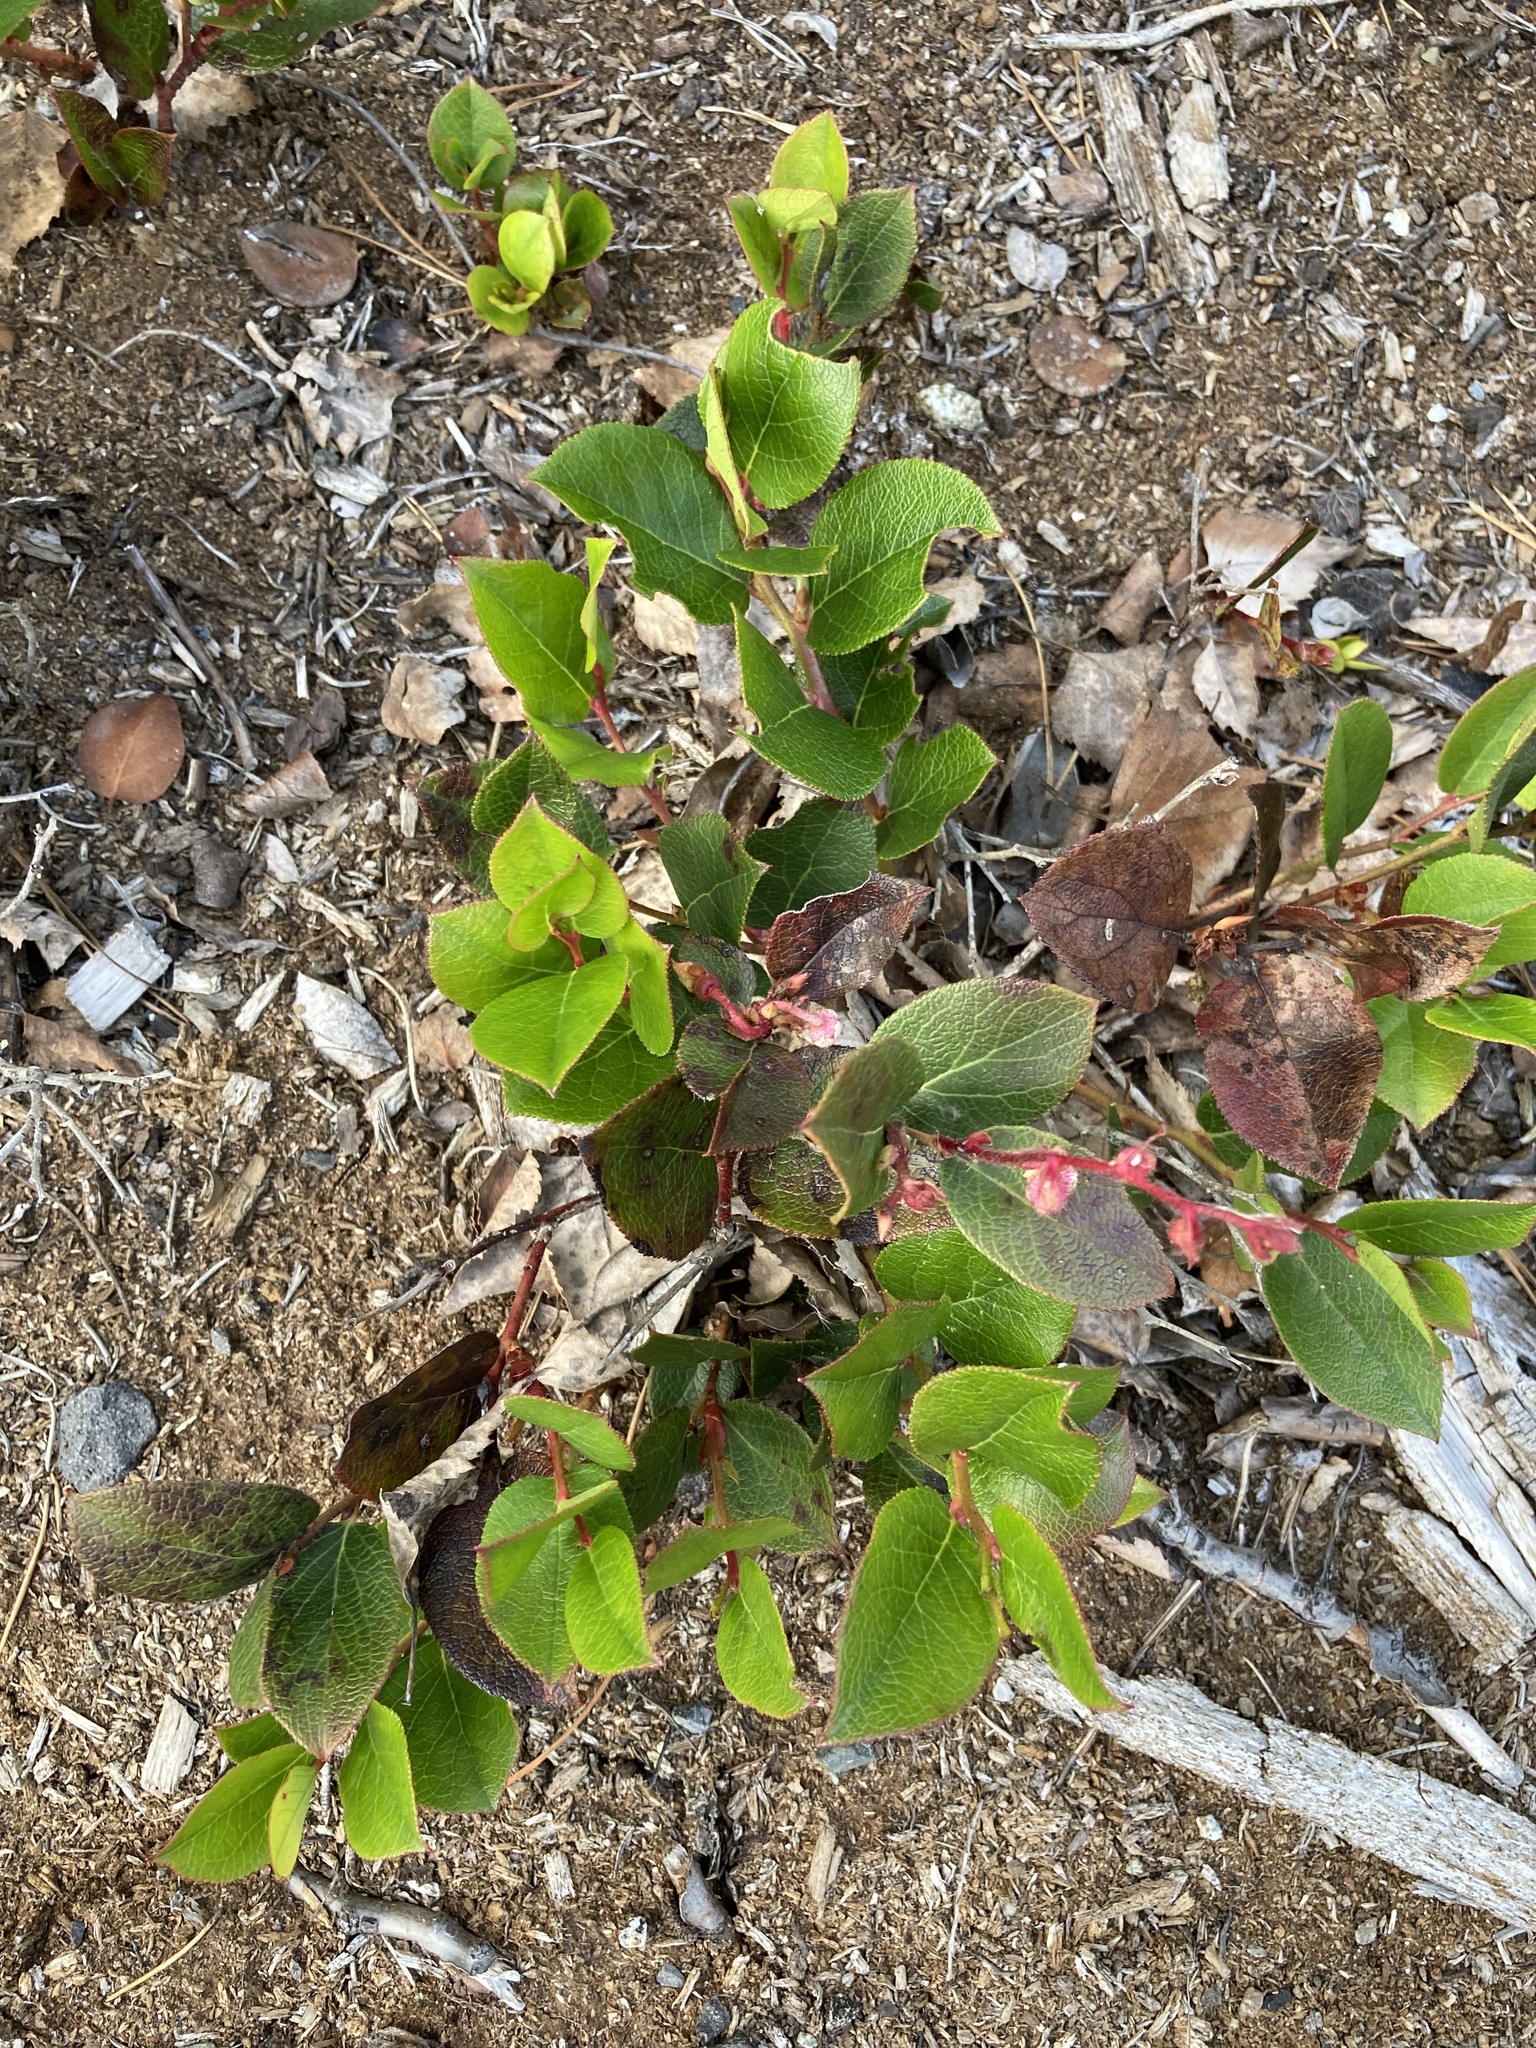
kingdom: Plantae
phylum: Tracheophyta
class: Magnoliopsida
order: Ericales
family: Ericaceae
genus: Gaultheria
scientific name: Gaultheria shallon
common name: Shallon
